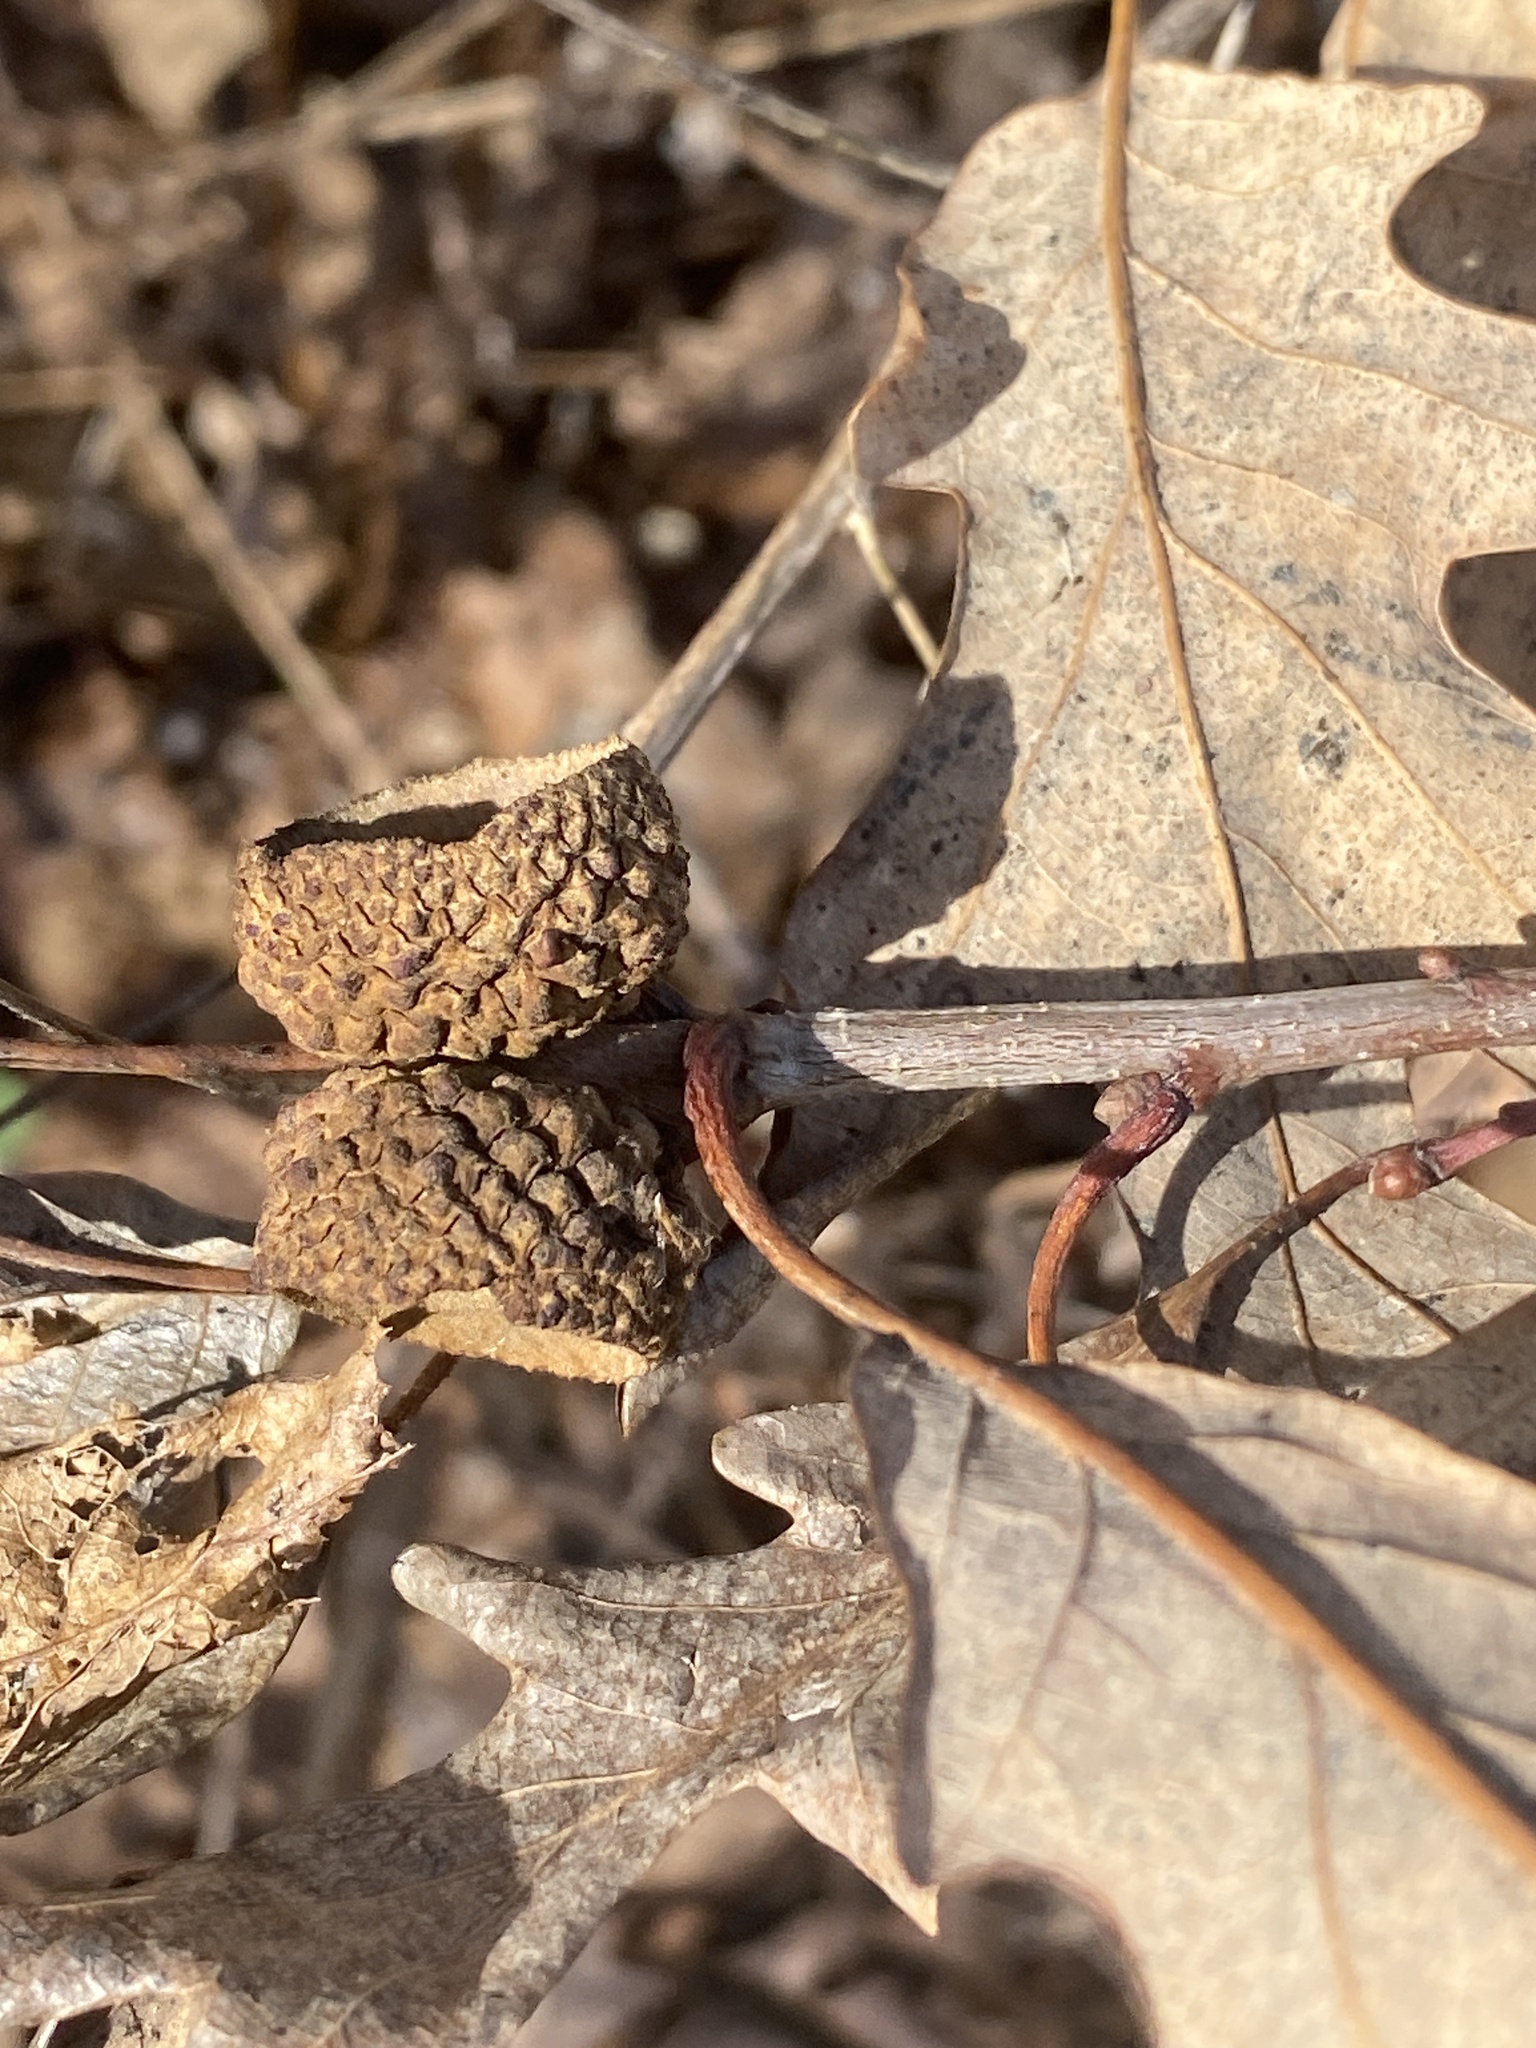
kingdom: Plantae
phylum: Tracheophyta
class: Magnoliopsida
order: Fagales
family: Fagaceae
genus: Quercus
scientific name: Quercus alba
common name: White oak
